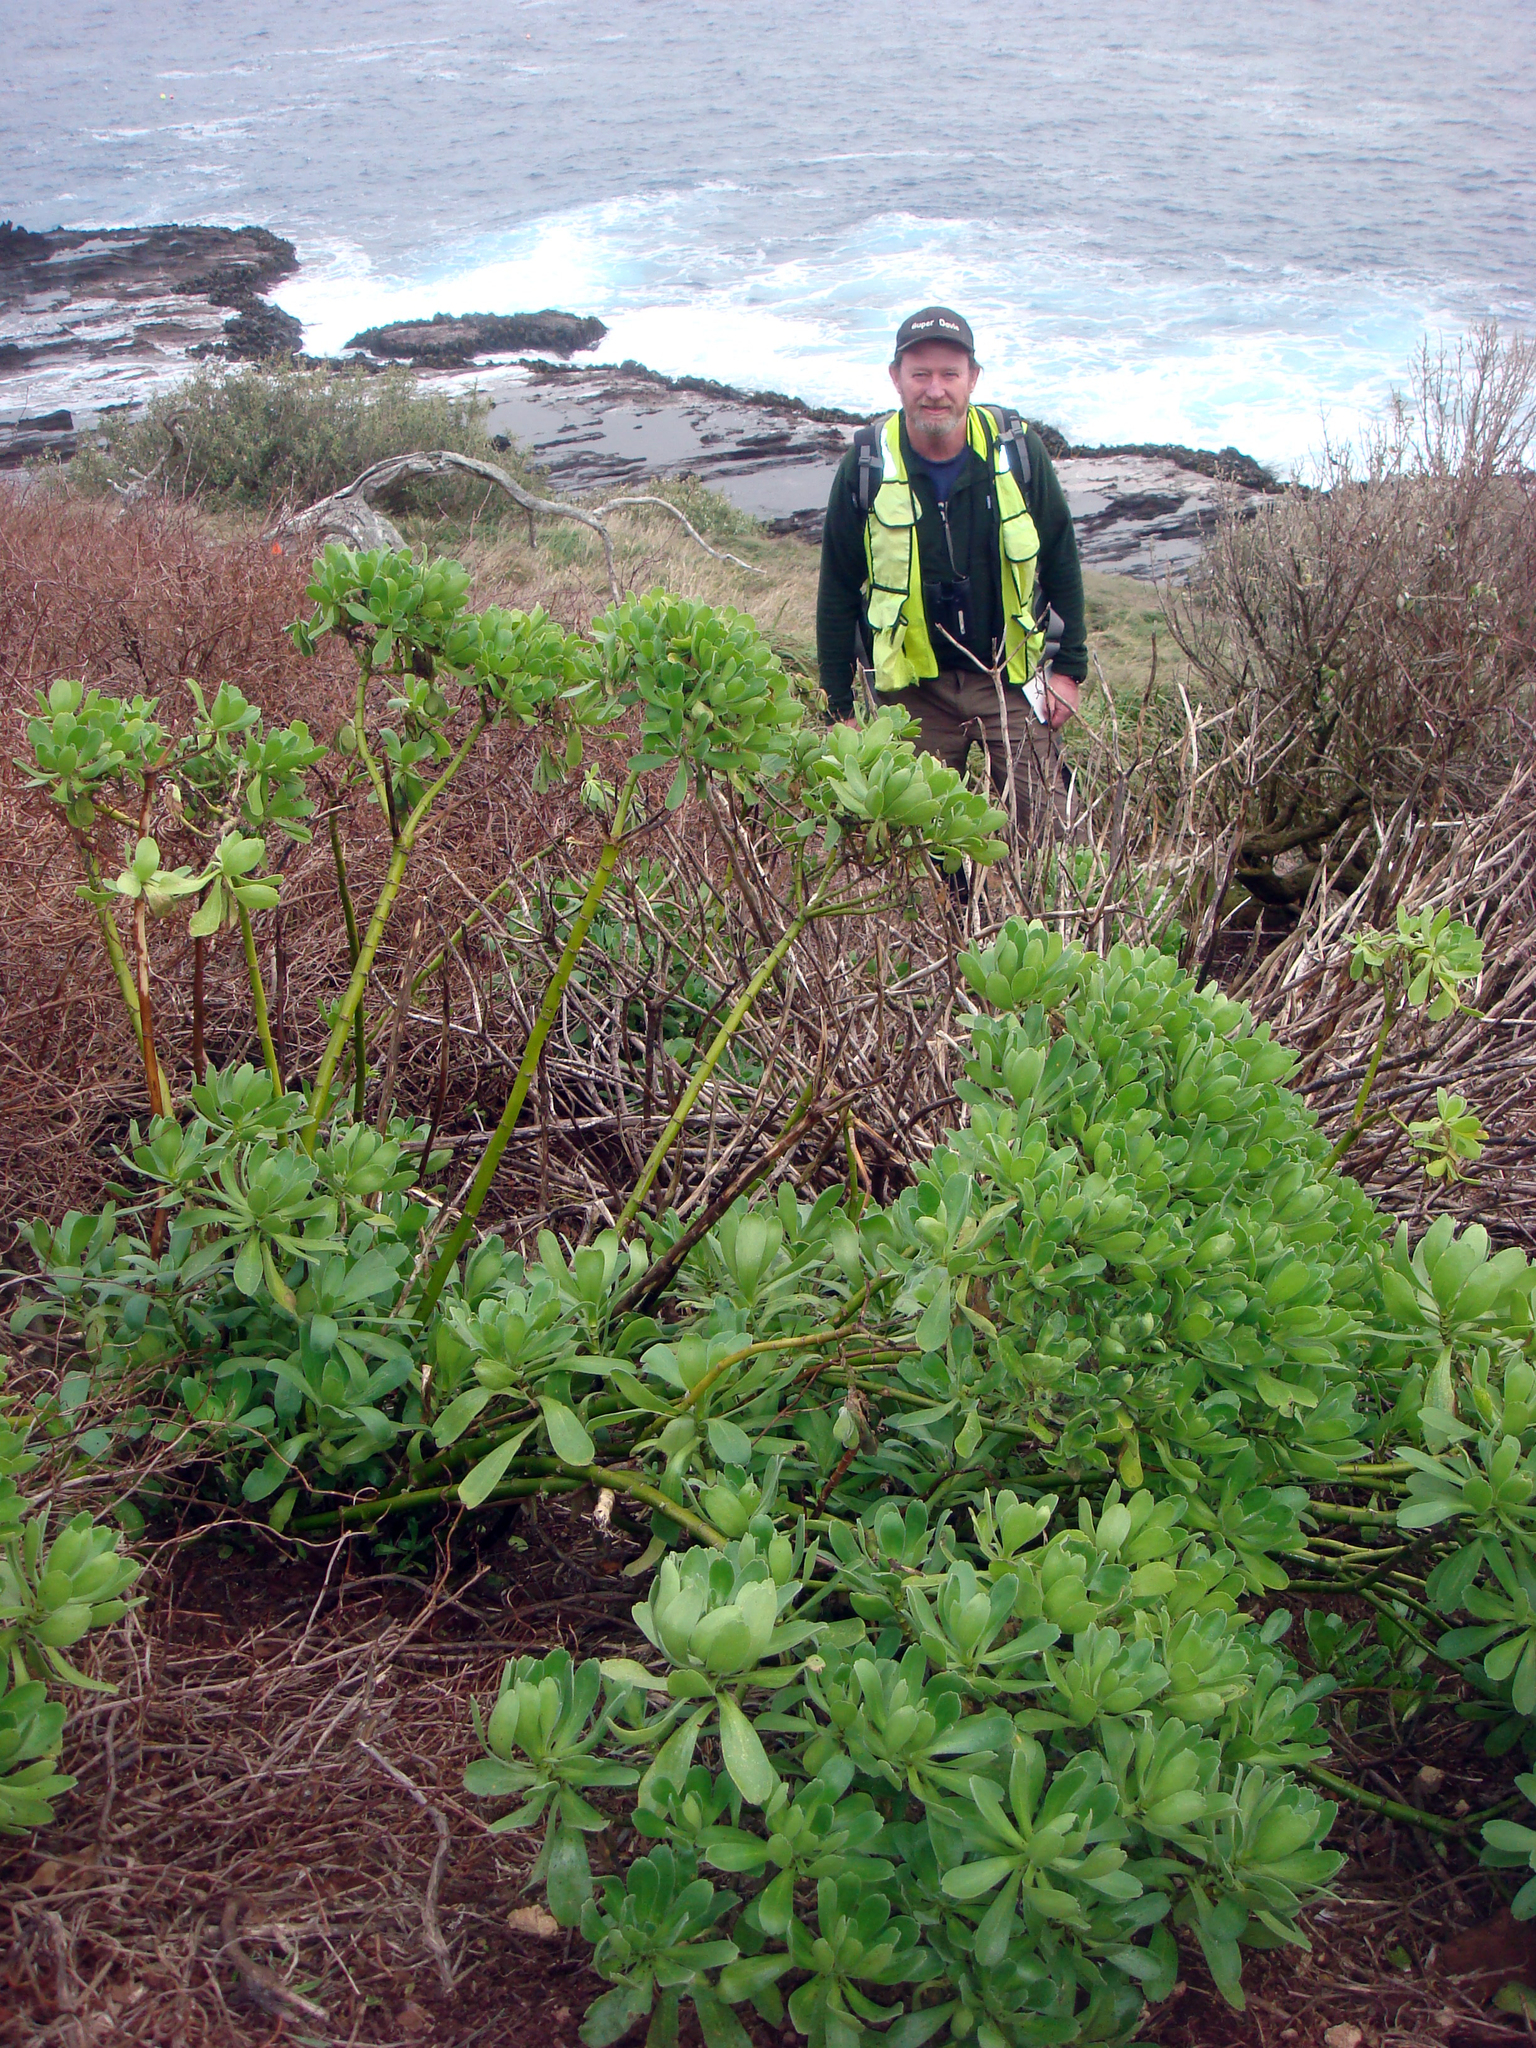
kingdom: Plantae
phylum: Tracheophyta
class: Magnoliopsida
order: Asterales
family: Asteraceae
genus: Leptinella
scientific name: Leptinella featherstonii
